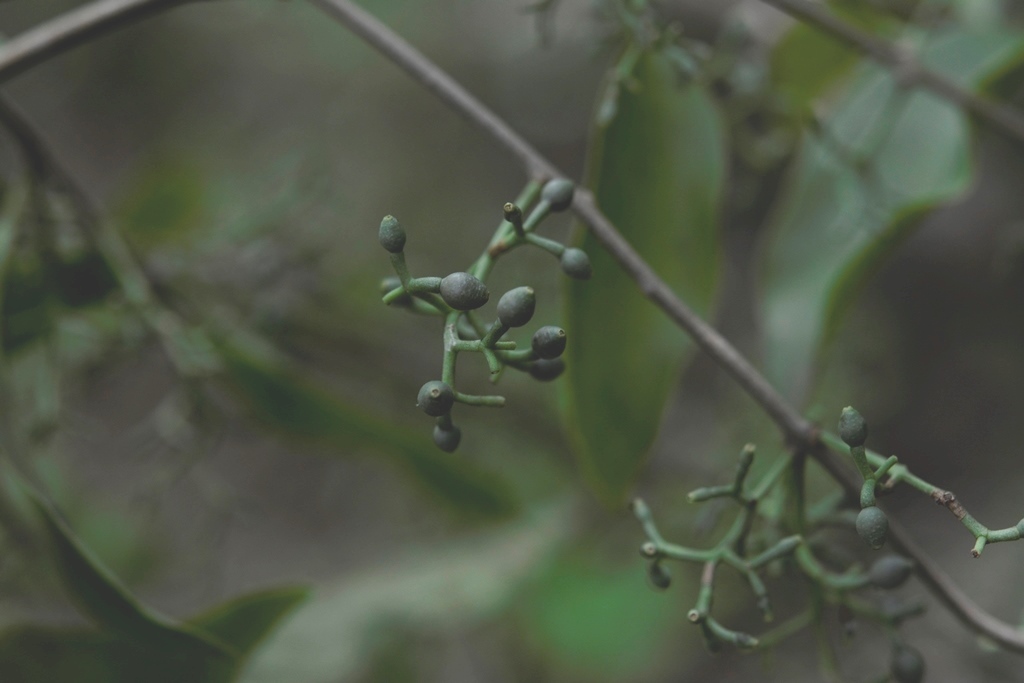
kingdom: Plantae
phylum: Tracheophyta
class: Magnoliopsida
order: Santalales
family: Loranthaceae
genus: Struthanthus
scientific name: Struthanthus quercicola
